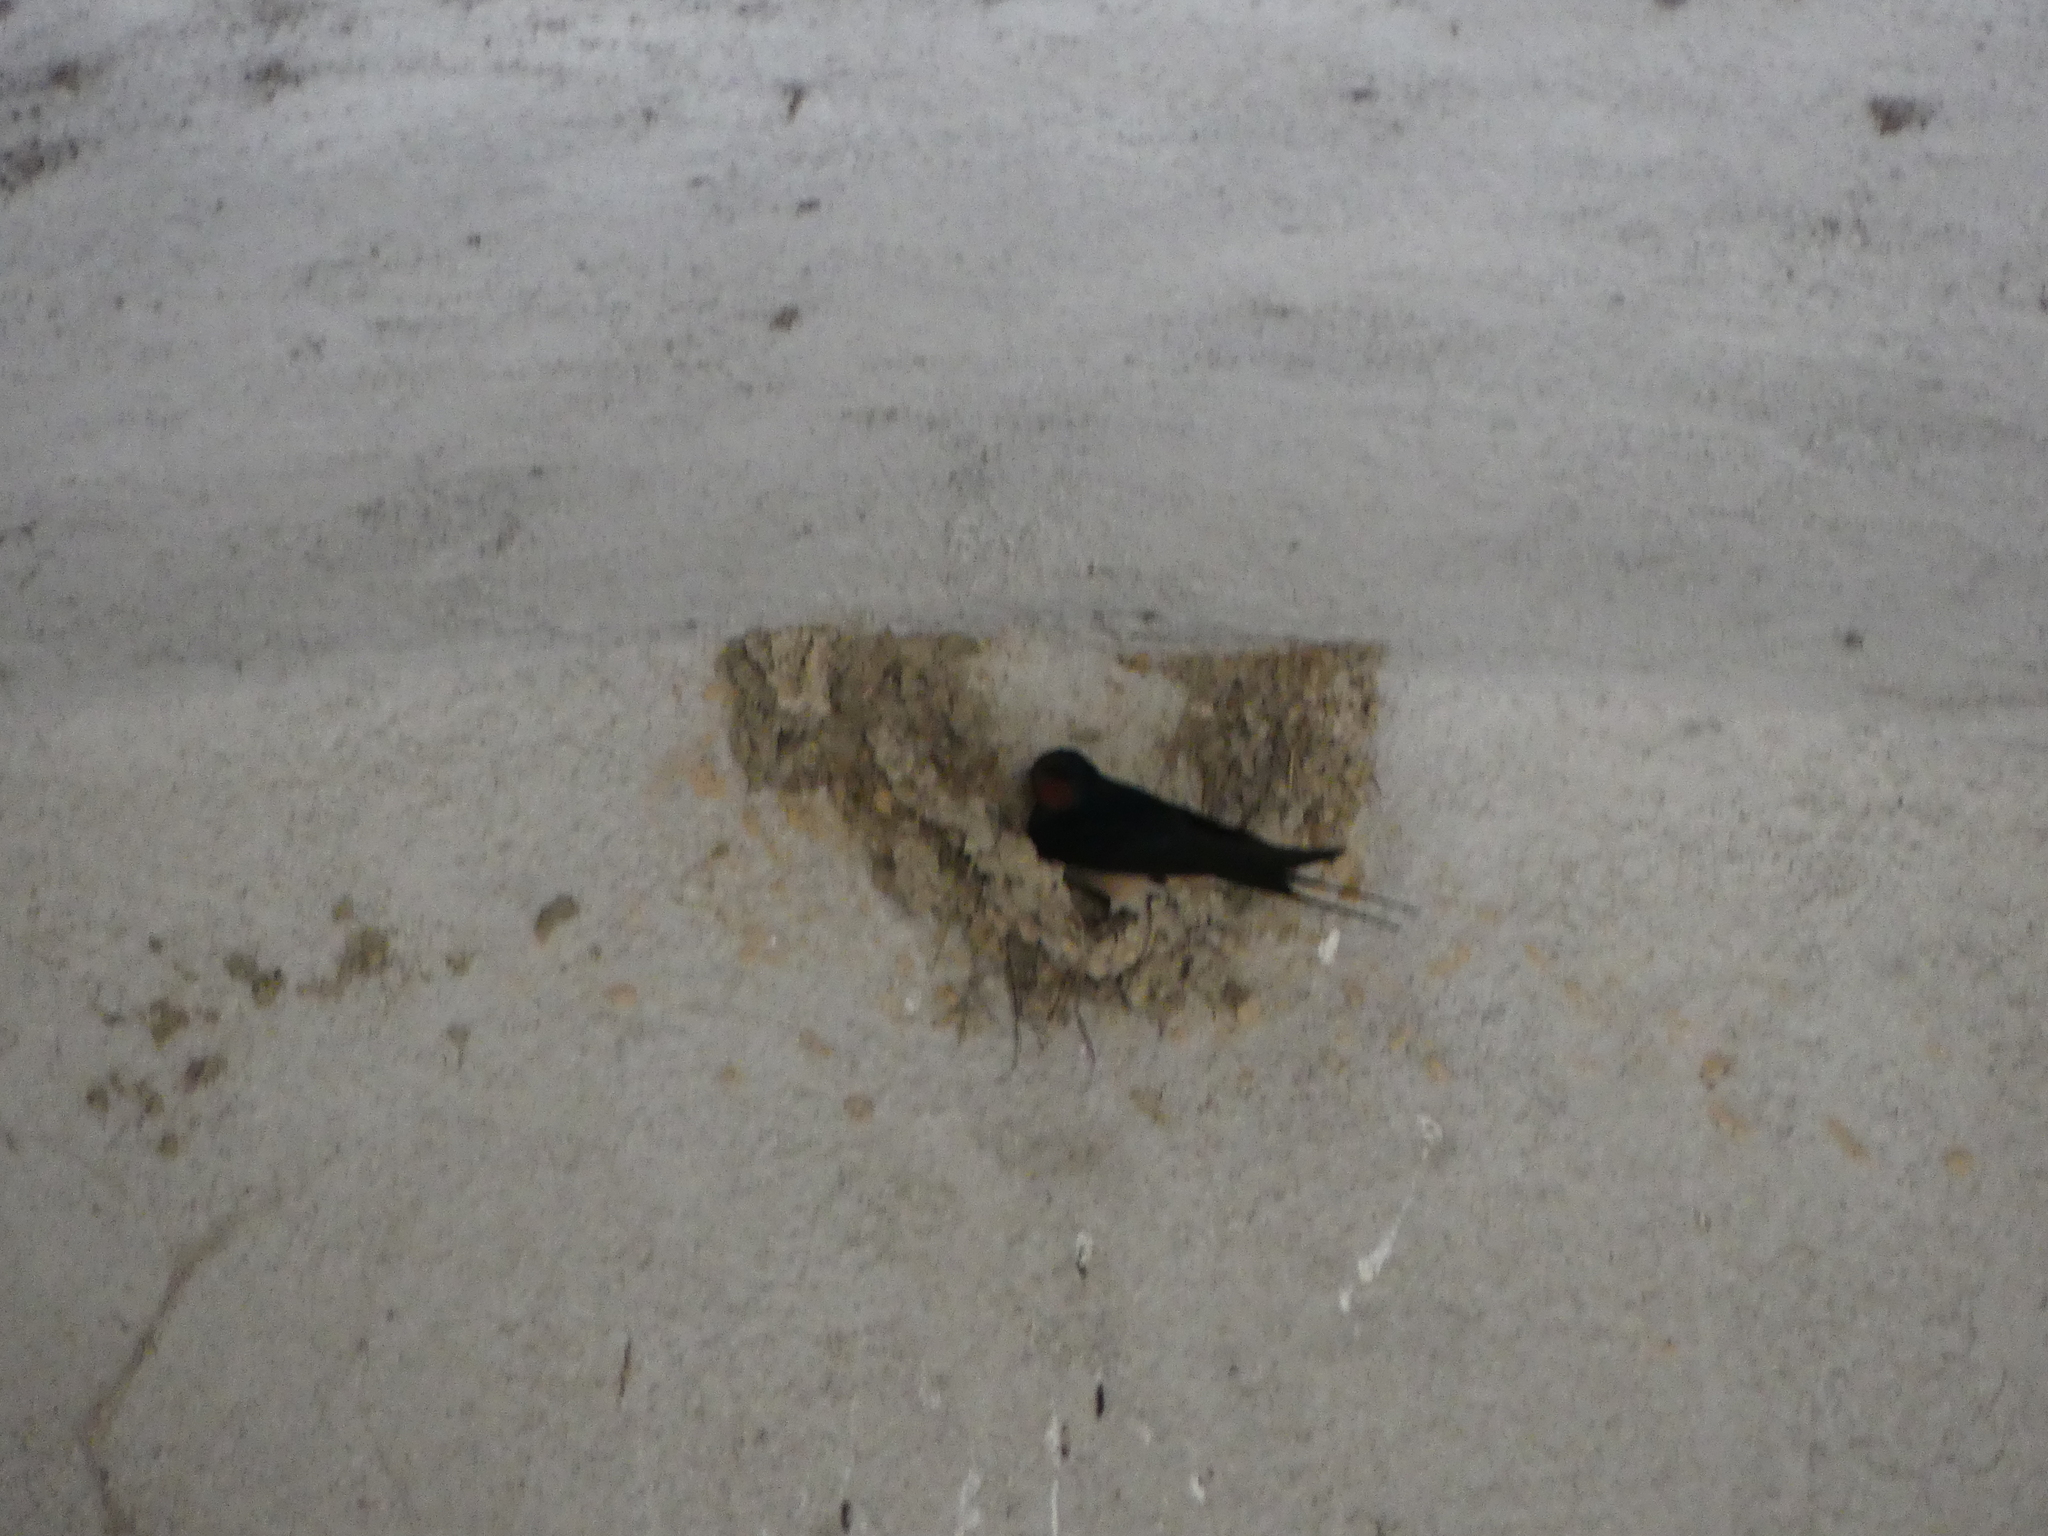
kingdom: Animalia
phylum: Chordata
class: Aves
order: Passeriformes
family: Hirundinidae
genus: Hirundo
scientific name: Hirundo rustica
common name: Barn swallow
